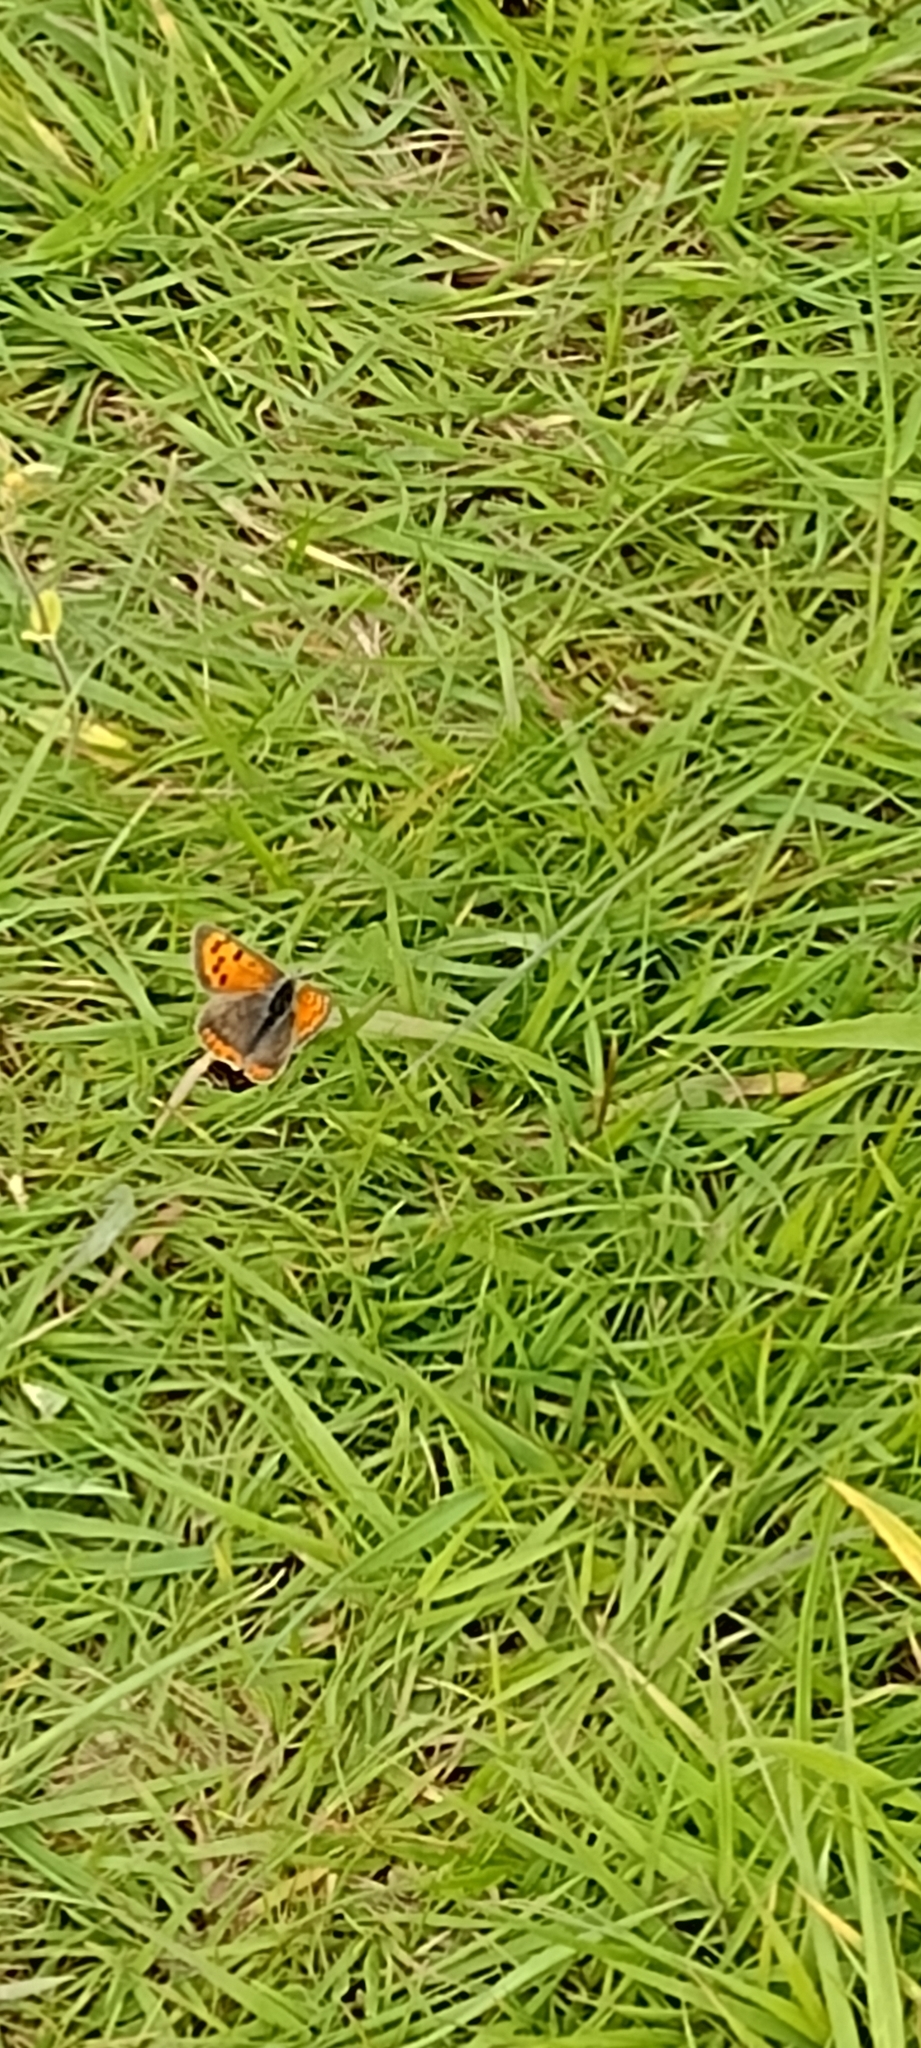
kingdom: Animalia
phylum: Arthropoda
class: Insecta
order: Lepidoptera
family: Lycaenidae
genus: Lycaena
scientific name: Lycaena phlaeas
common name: Small copper
